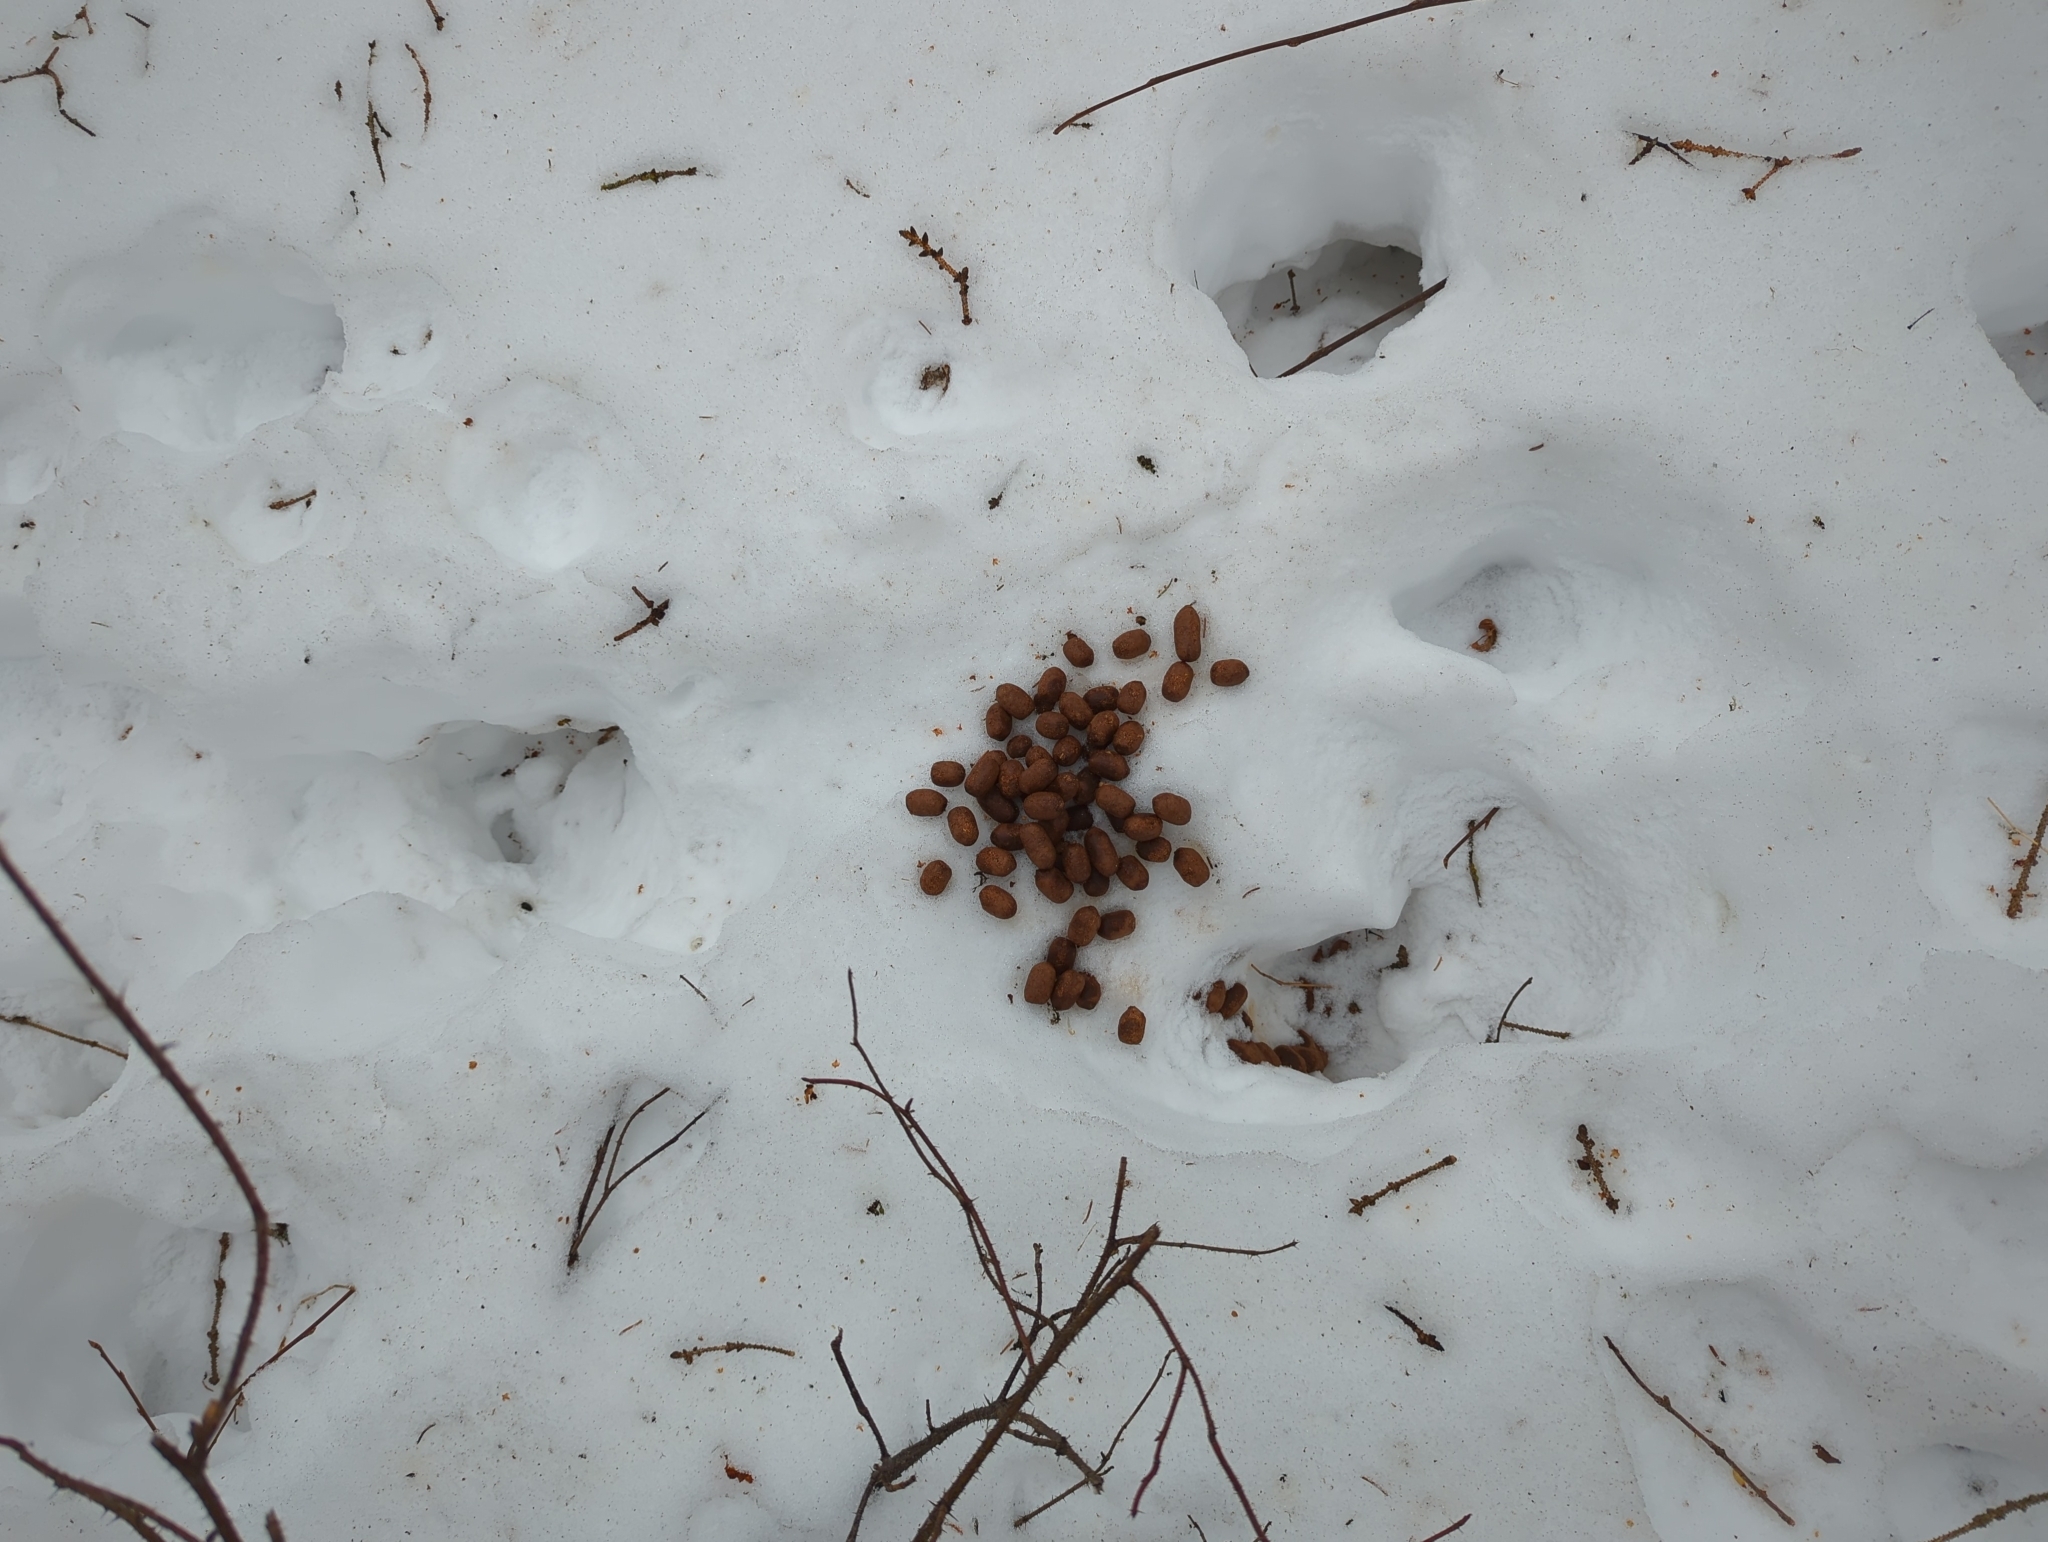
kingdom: Animalia
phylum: Chordata
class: Mammalia
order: Artiodactyla
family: Cervidae
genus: Alces
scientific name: Alces alces
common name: Moose
